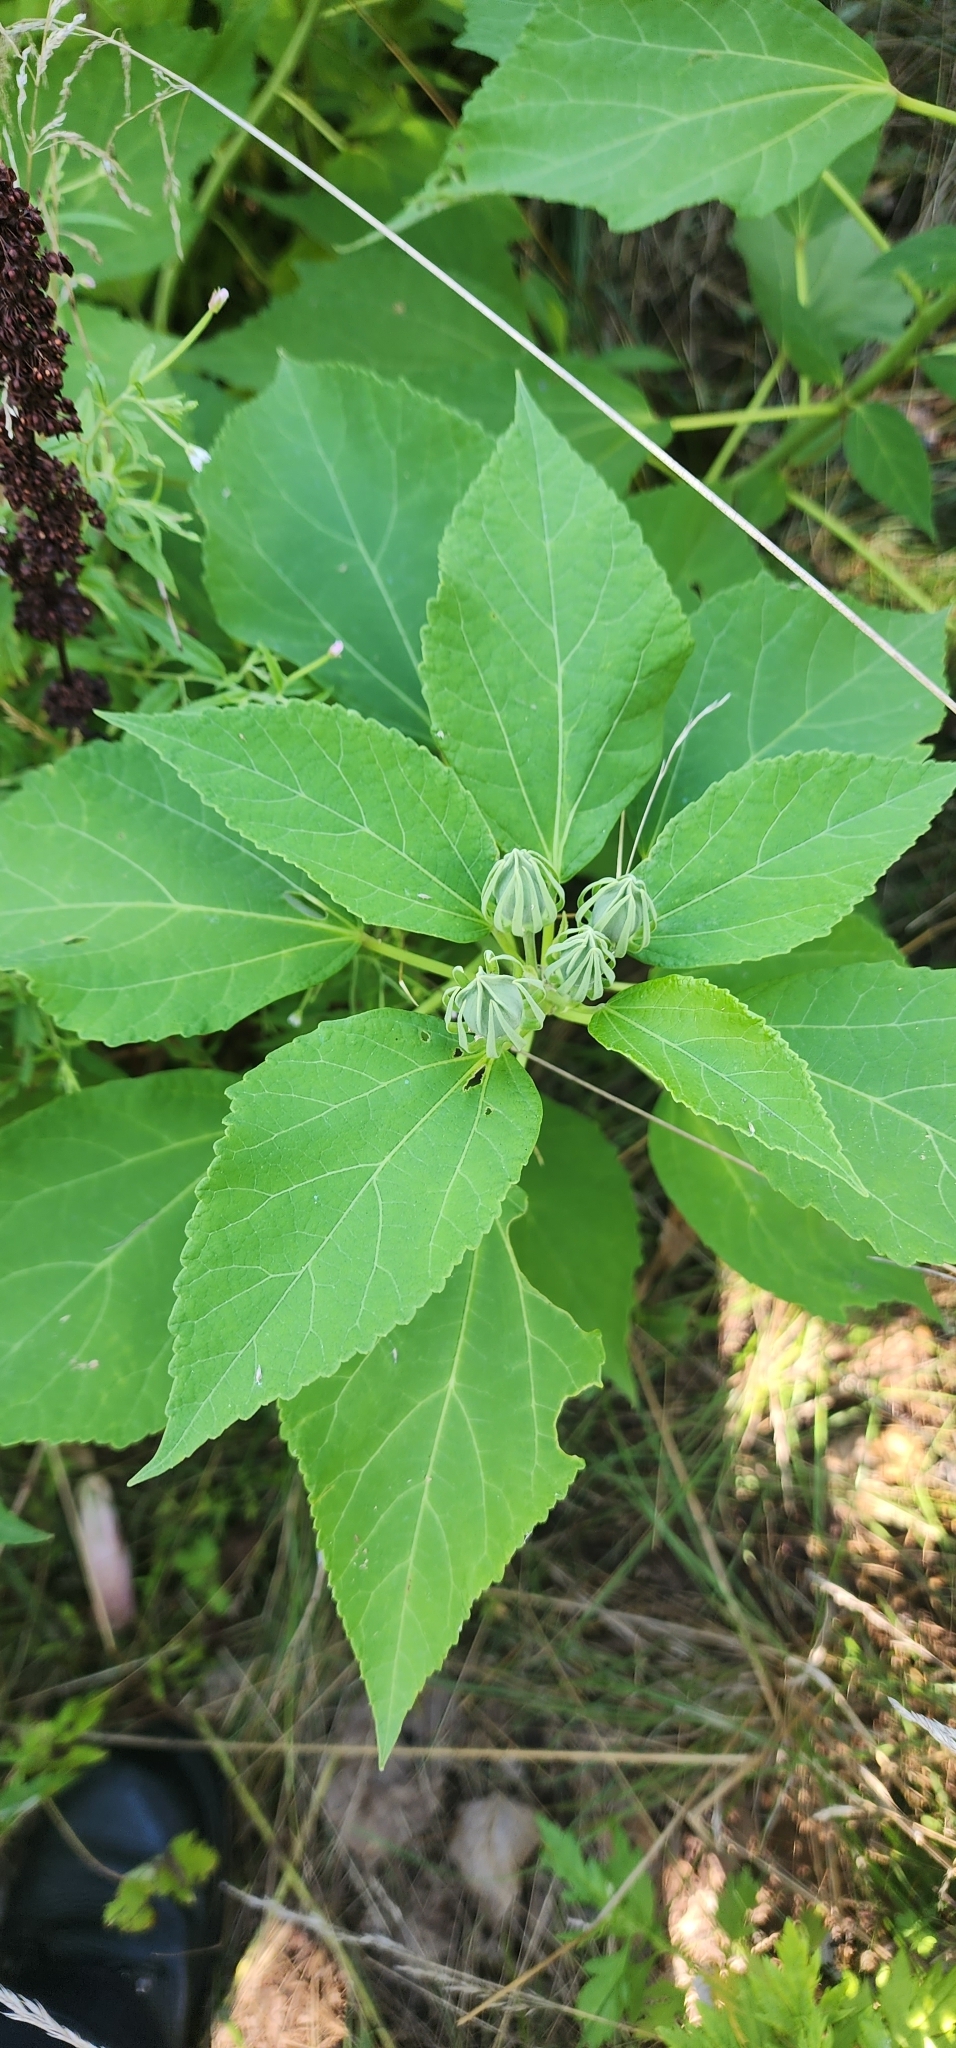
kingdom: Plantae
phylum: Tracheophyta
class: Magnoliopsida
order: Malvales
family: Malvaceae
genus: Hibiscus
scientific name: Hibiscus moscheutos
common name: Common rose-mallow
